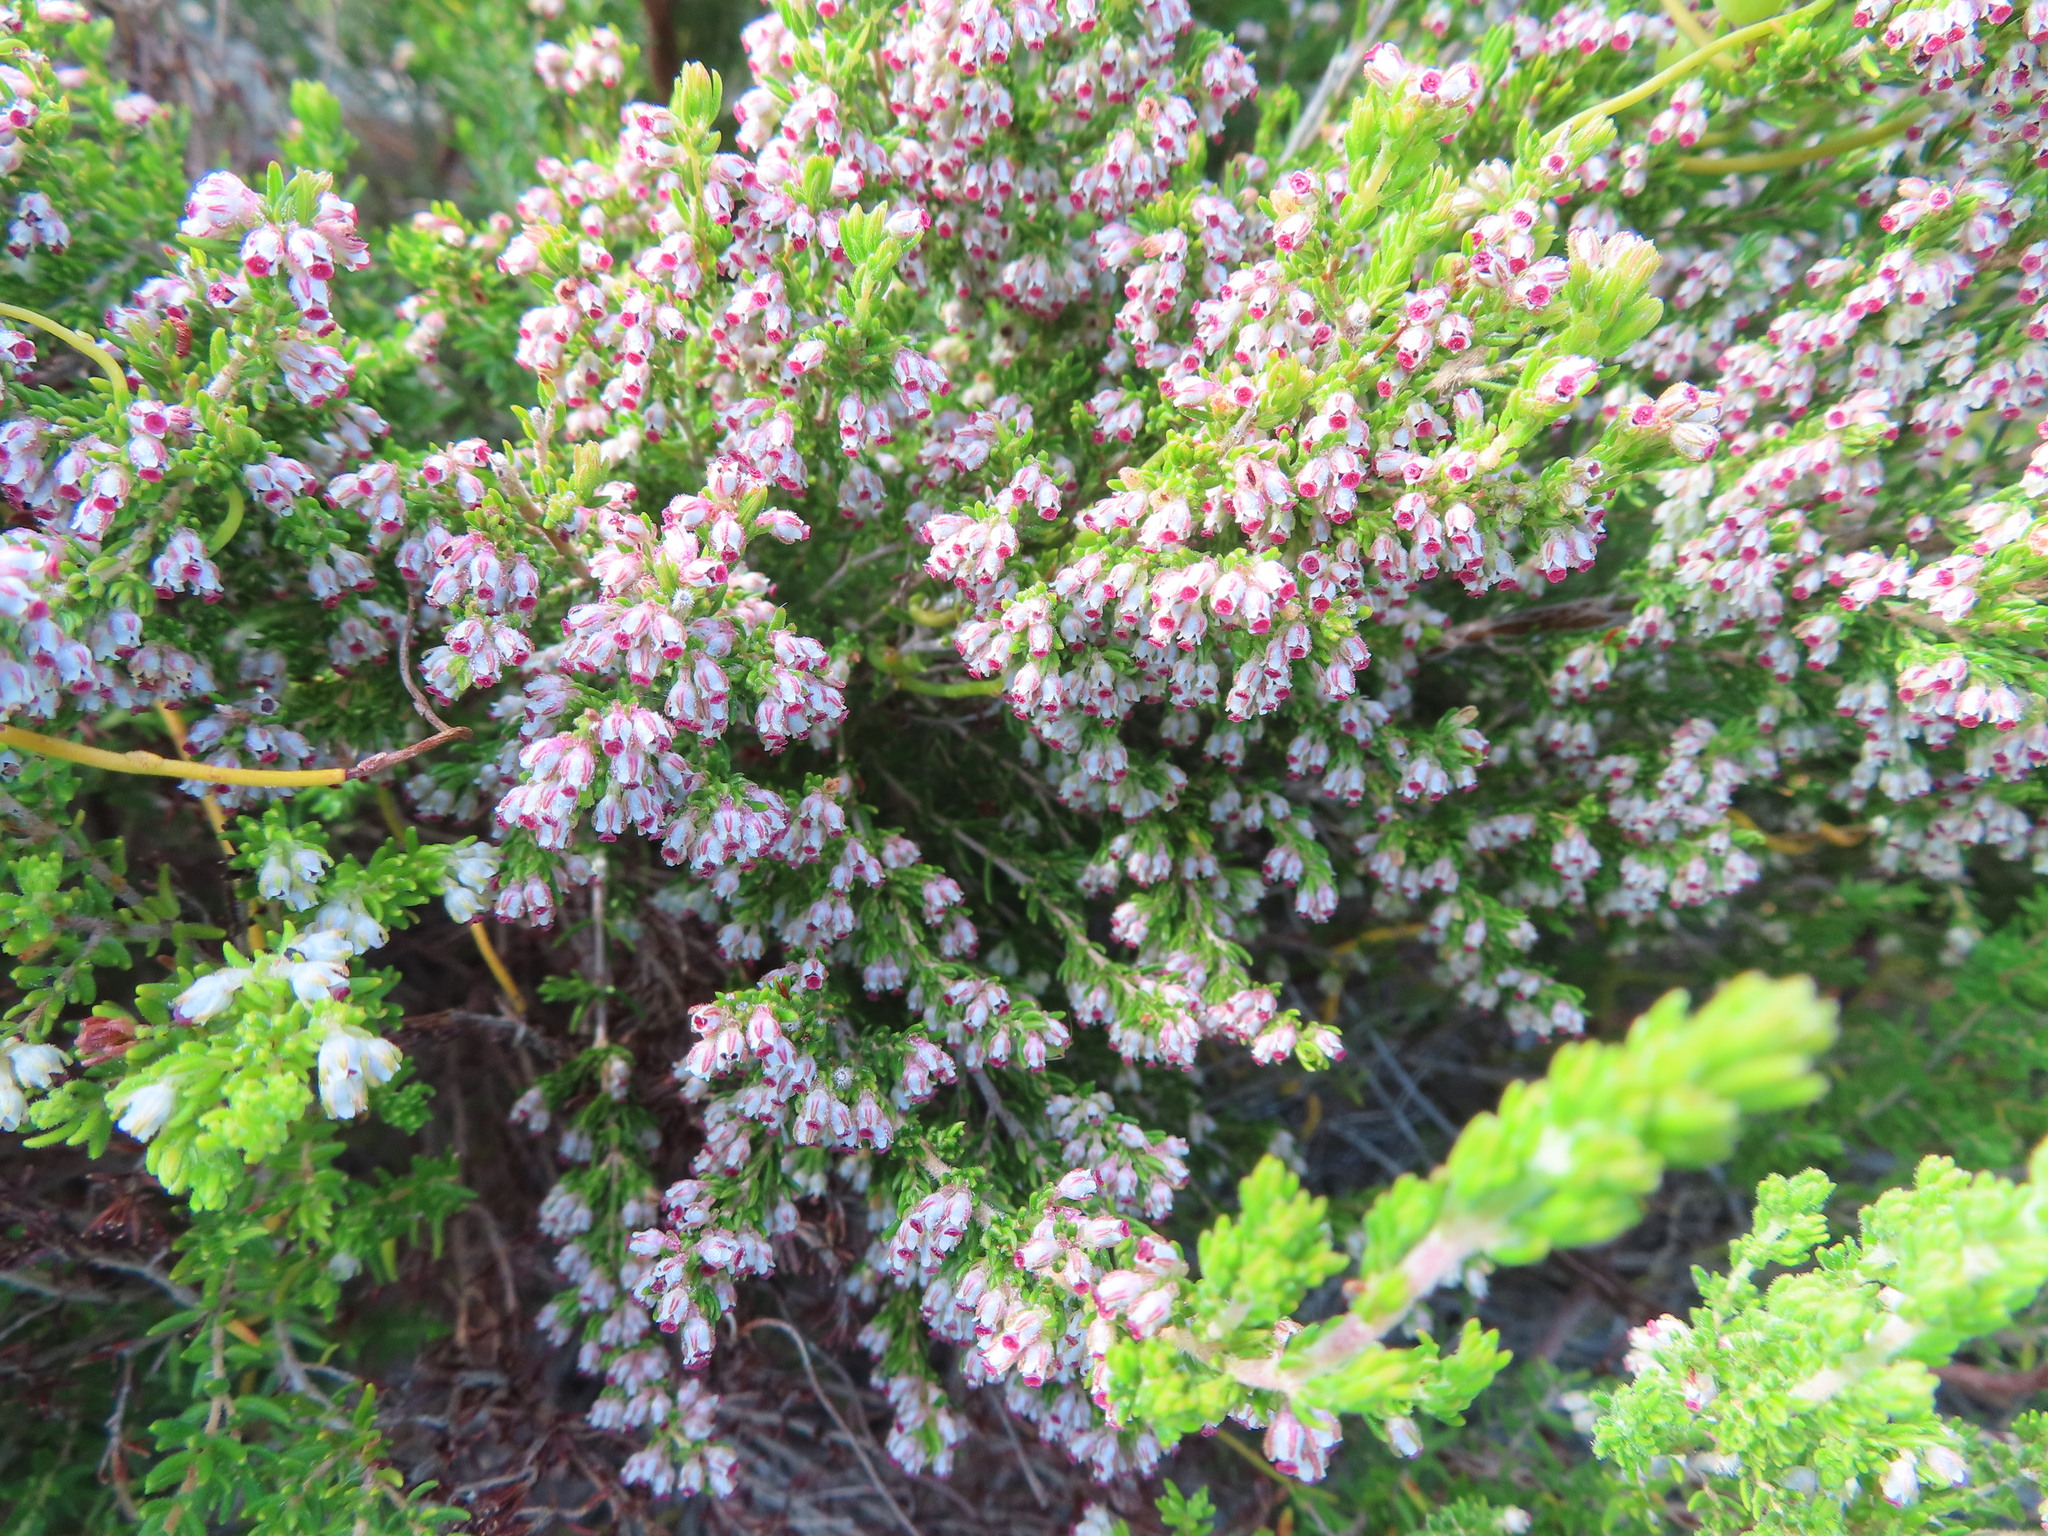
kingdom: Plantae
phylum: Tracheophyta
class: Magnoliopsida
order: Ericales
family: Ericaceae
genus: Erica
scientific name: Erica hispidula
